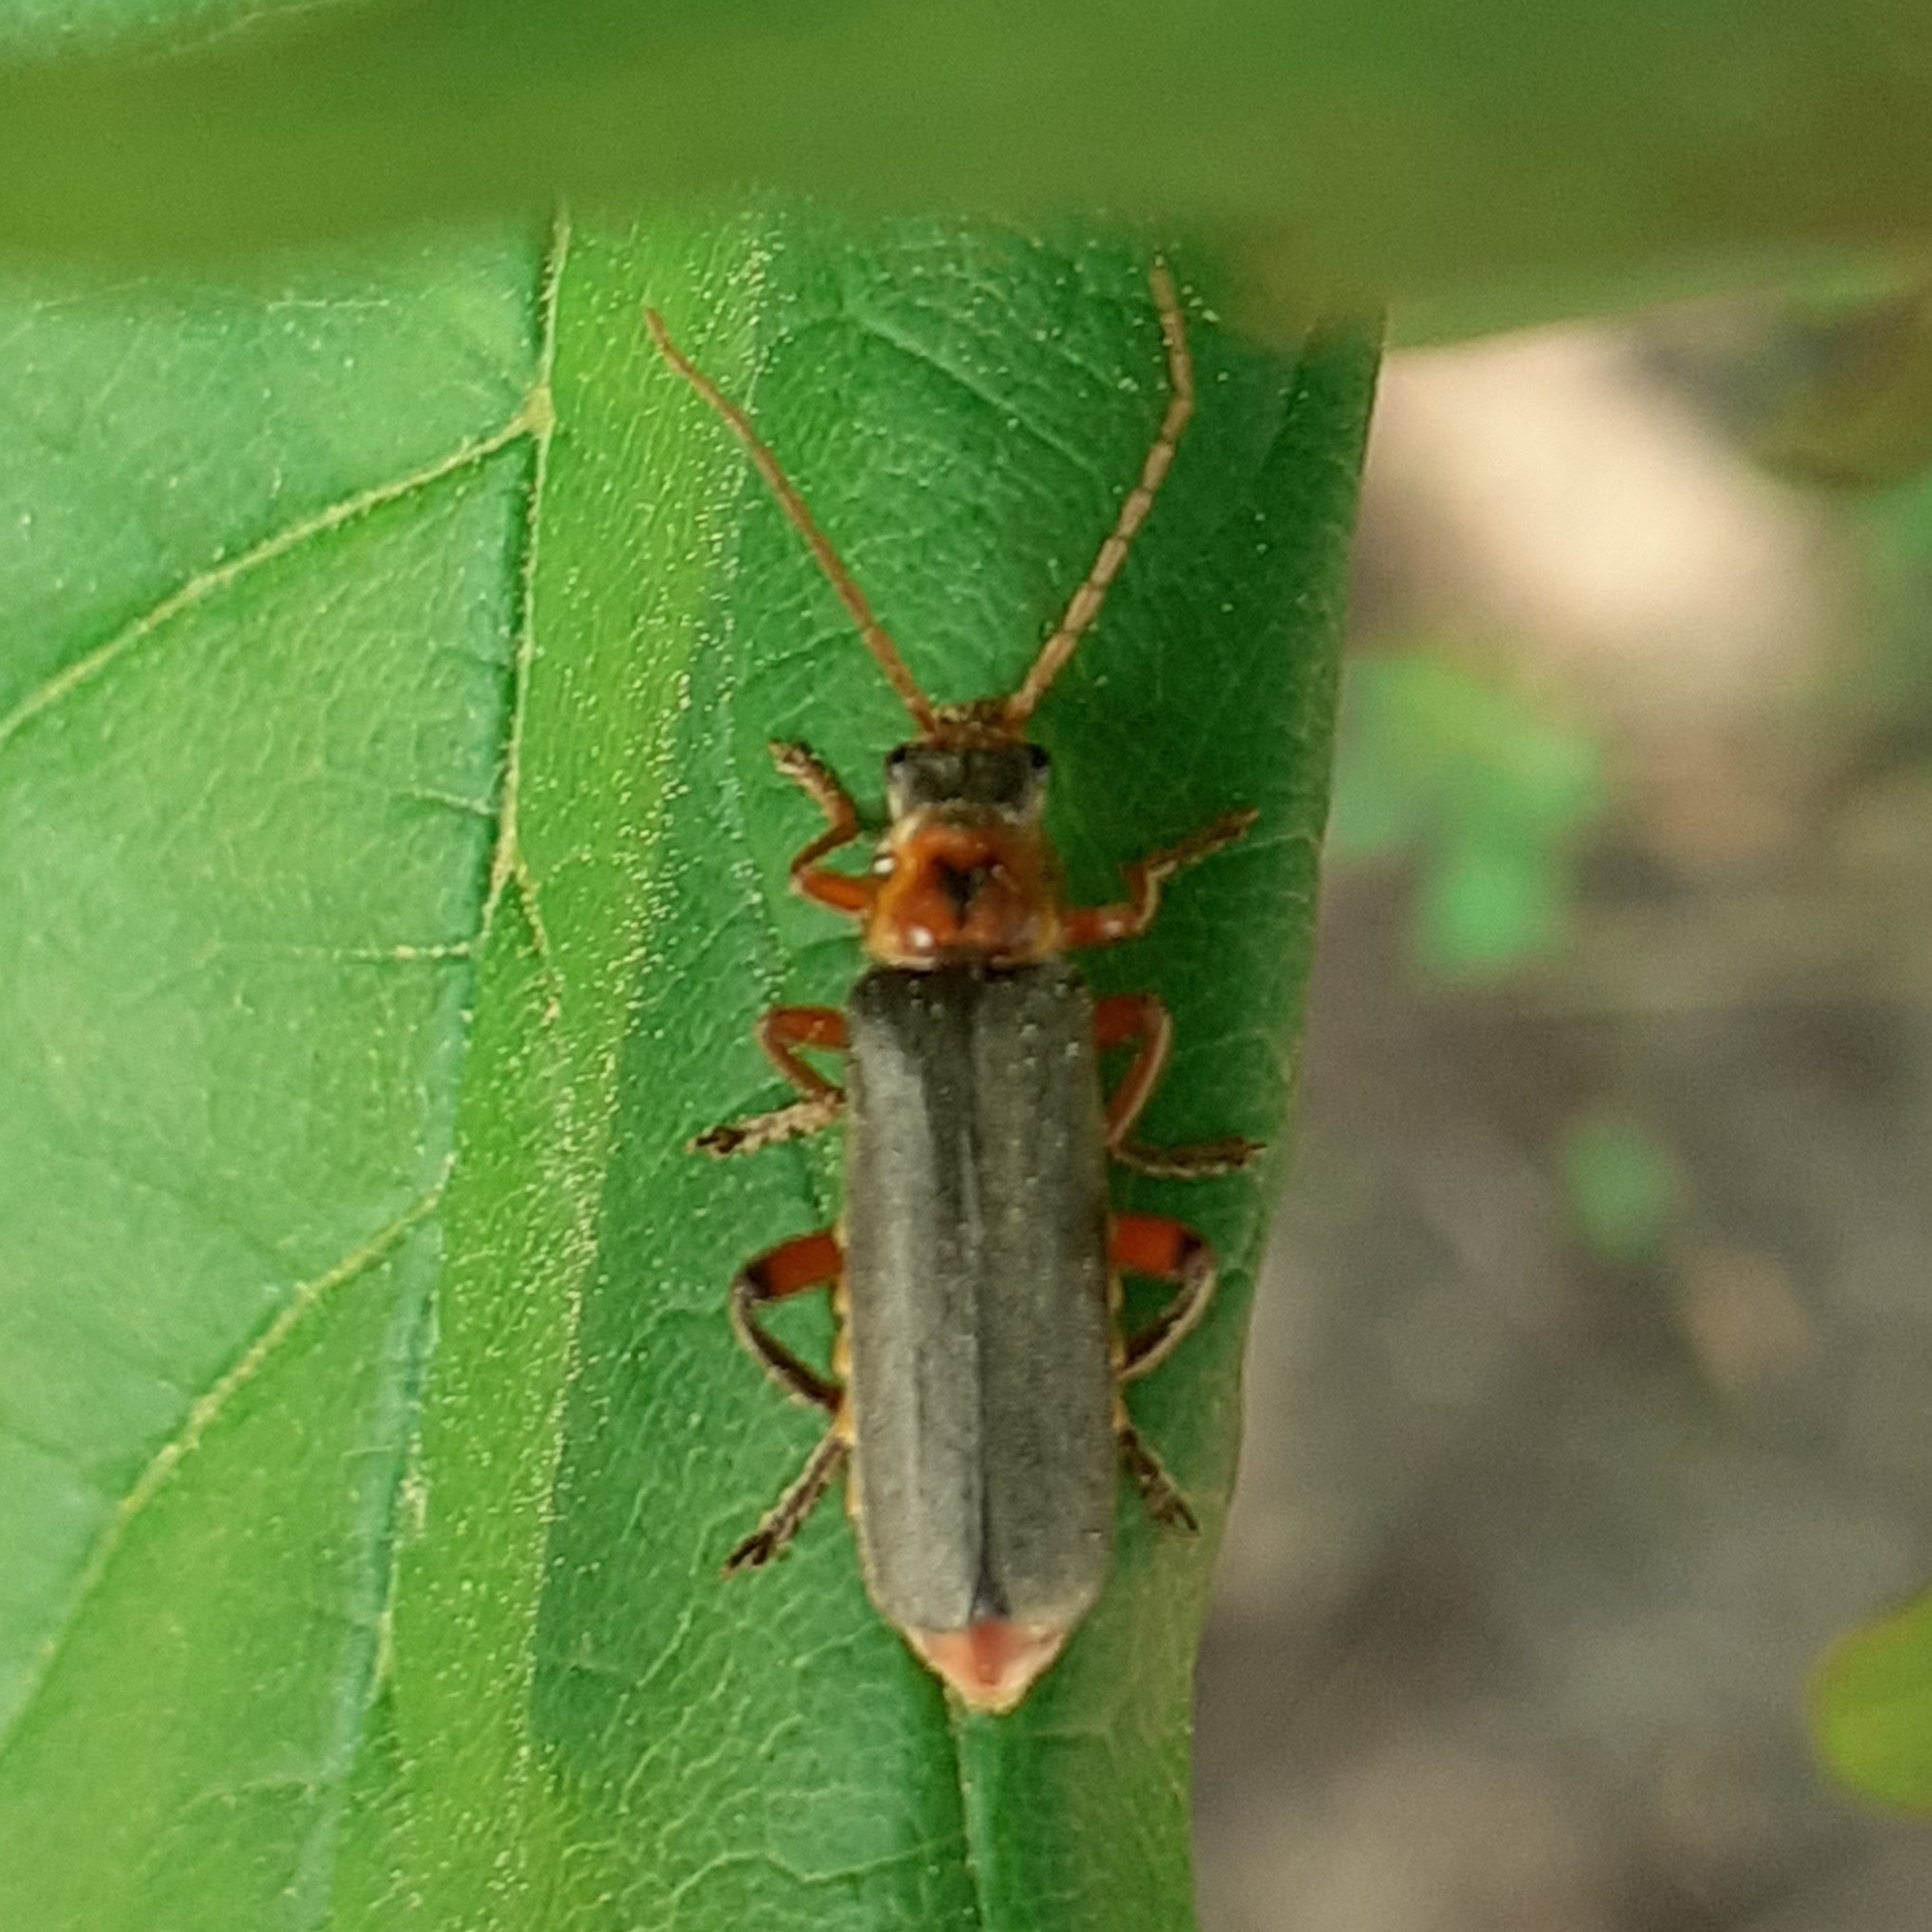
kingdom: Animalia
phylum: Arthropoda
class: Insecta
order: Coleoptera
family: Cantharidae
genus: Cantharis
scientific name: Cantharis nigricans
